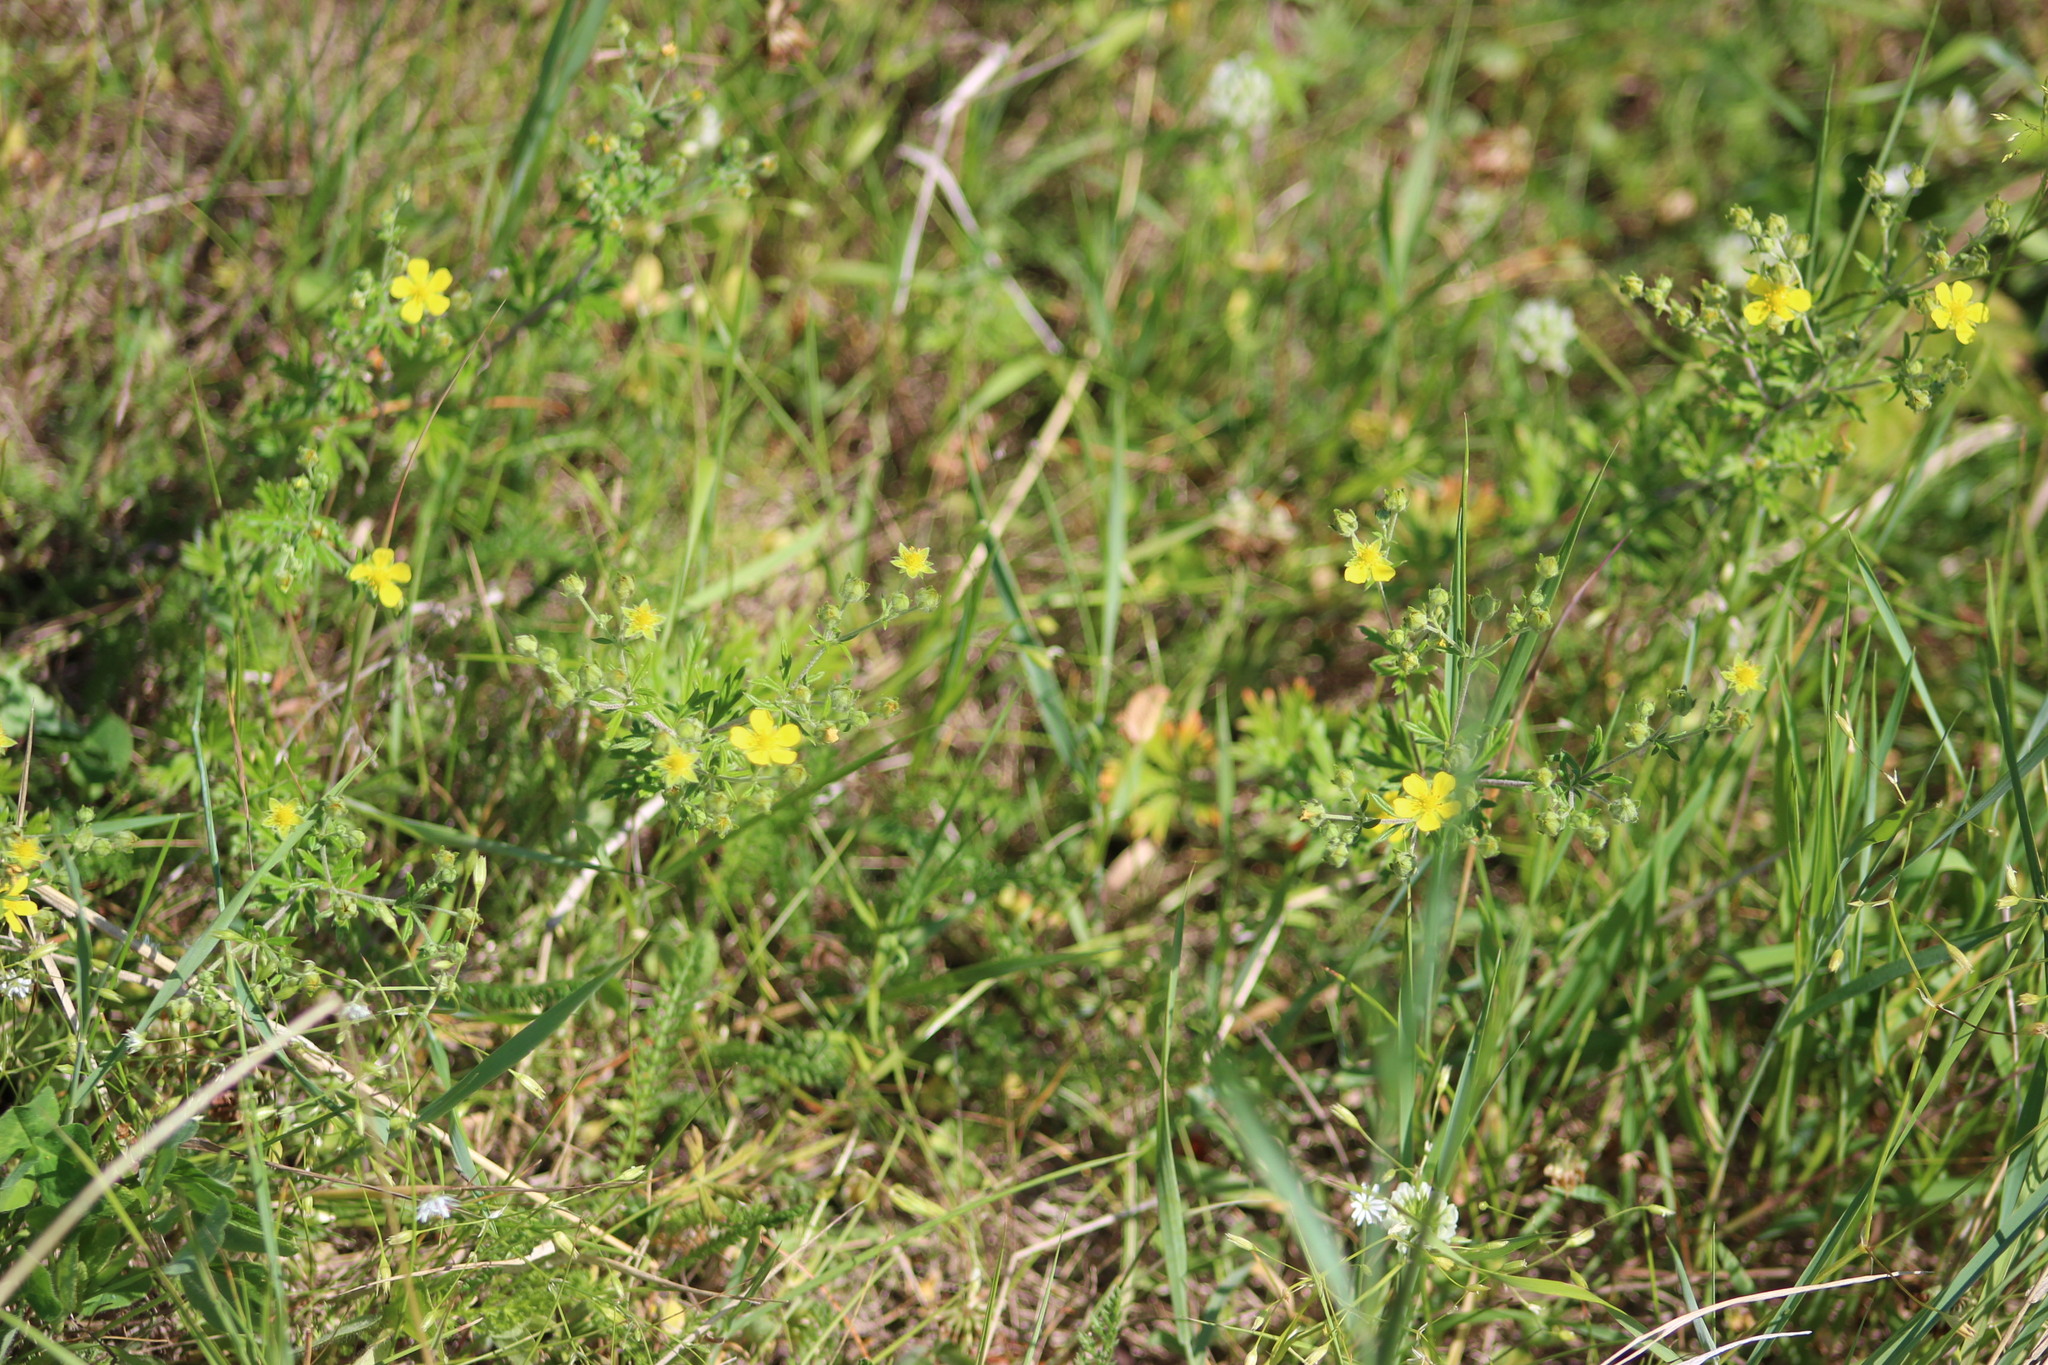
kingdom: Plantae
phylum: Tracheophyta
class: Magnoliopsida
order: Rosales
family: Rosaceae
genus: Potentilla
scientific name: Potentilla argentea
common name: Hoary cinquefoil
